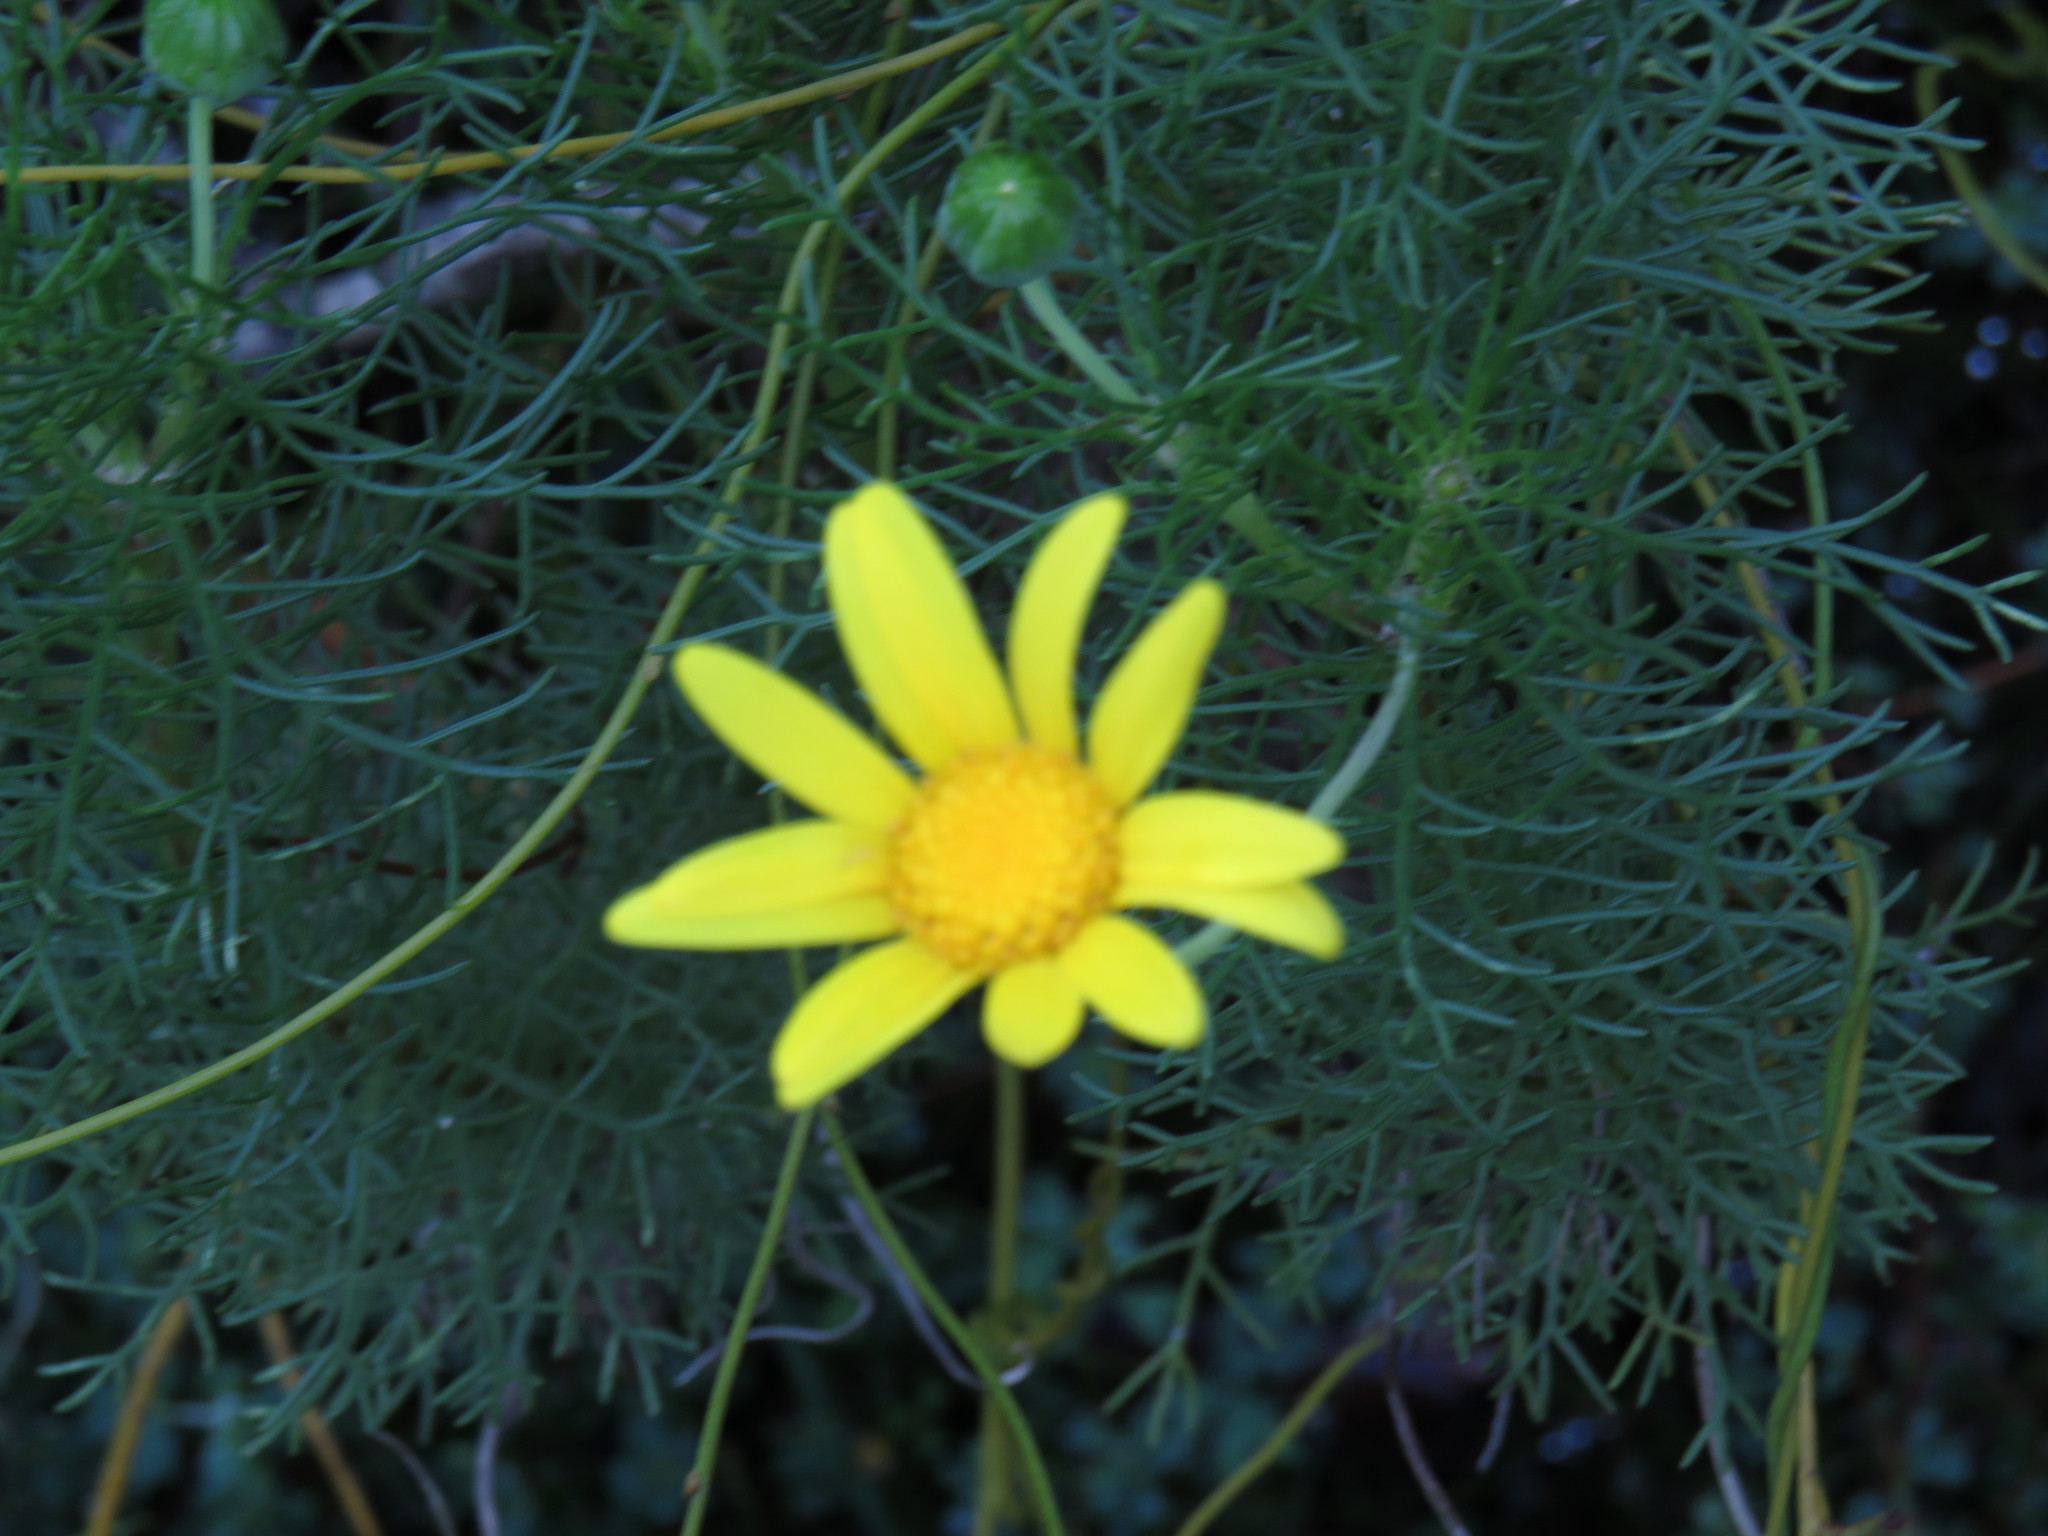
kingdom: Plantae
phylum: Tracheophyta
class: Magnoliopsida
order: Asterales
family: Asteraceae
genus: Euryops
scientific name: Euryops abrotanifolius
